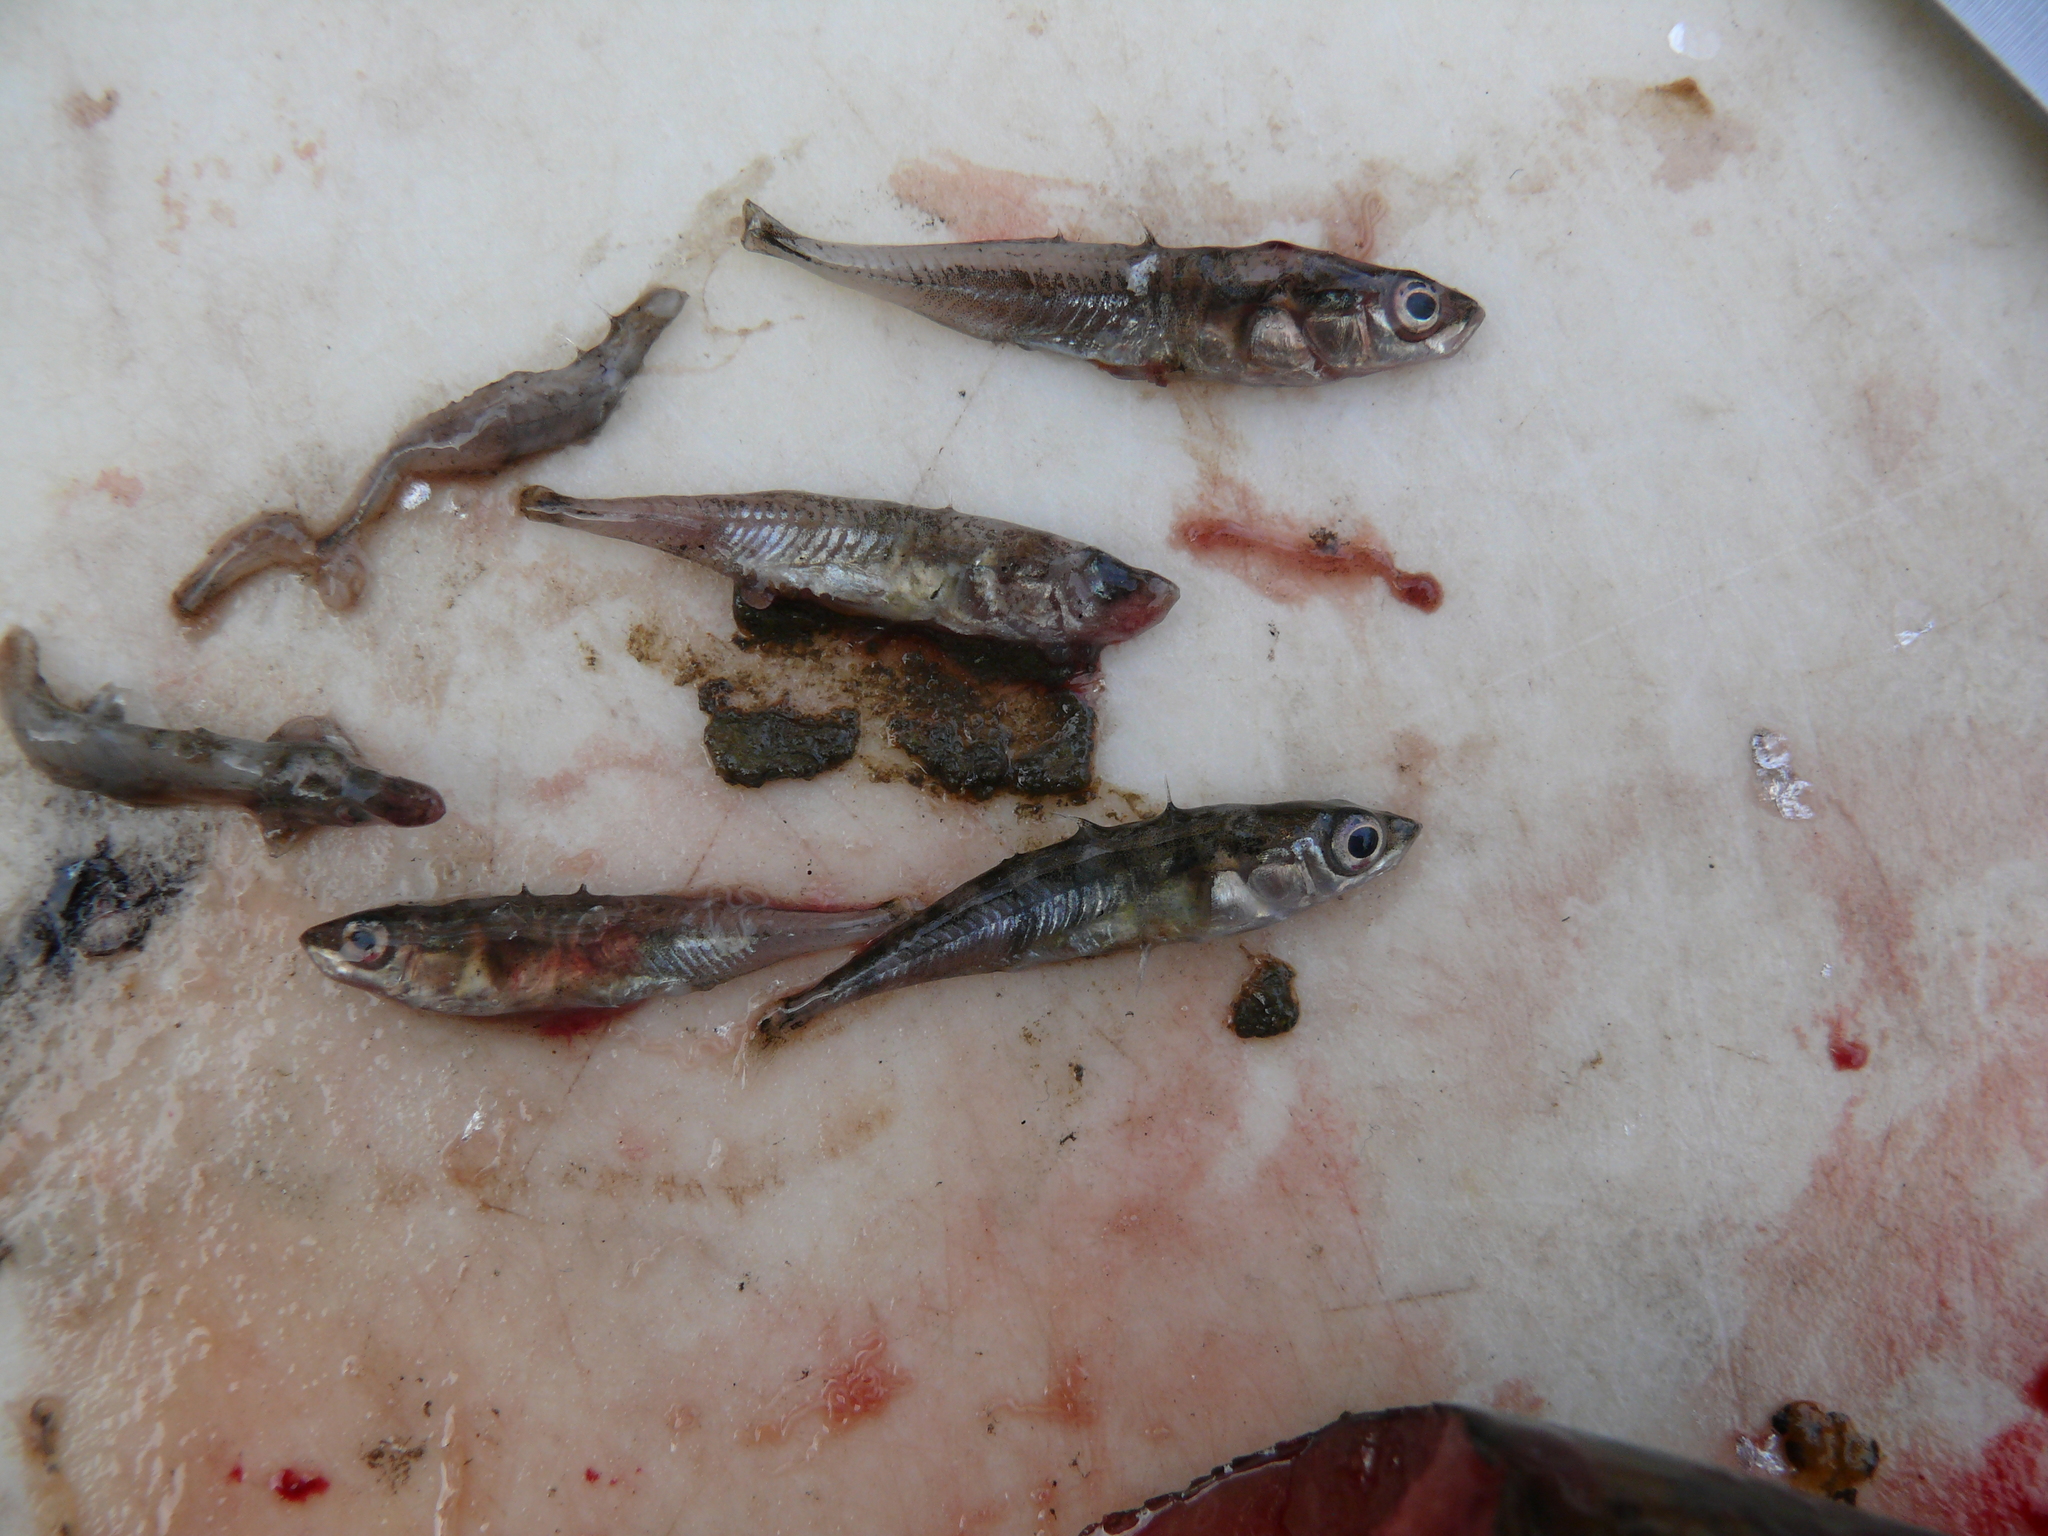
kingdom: Animalia
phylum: Chordata
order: Salmoniformes
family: Salmonidae
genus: Oncorhynchus
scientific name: Oncorhynchus kisutch
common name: Coho salmon
